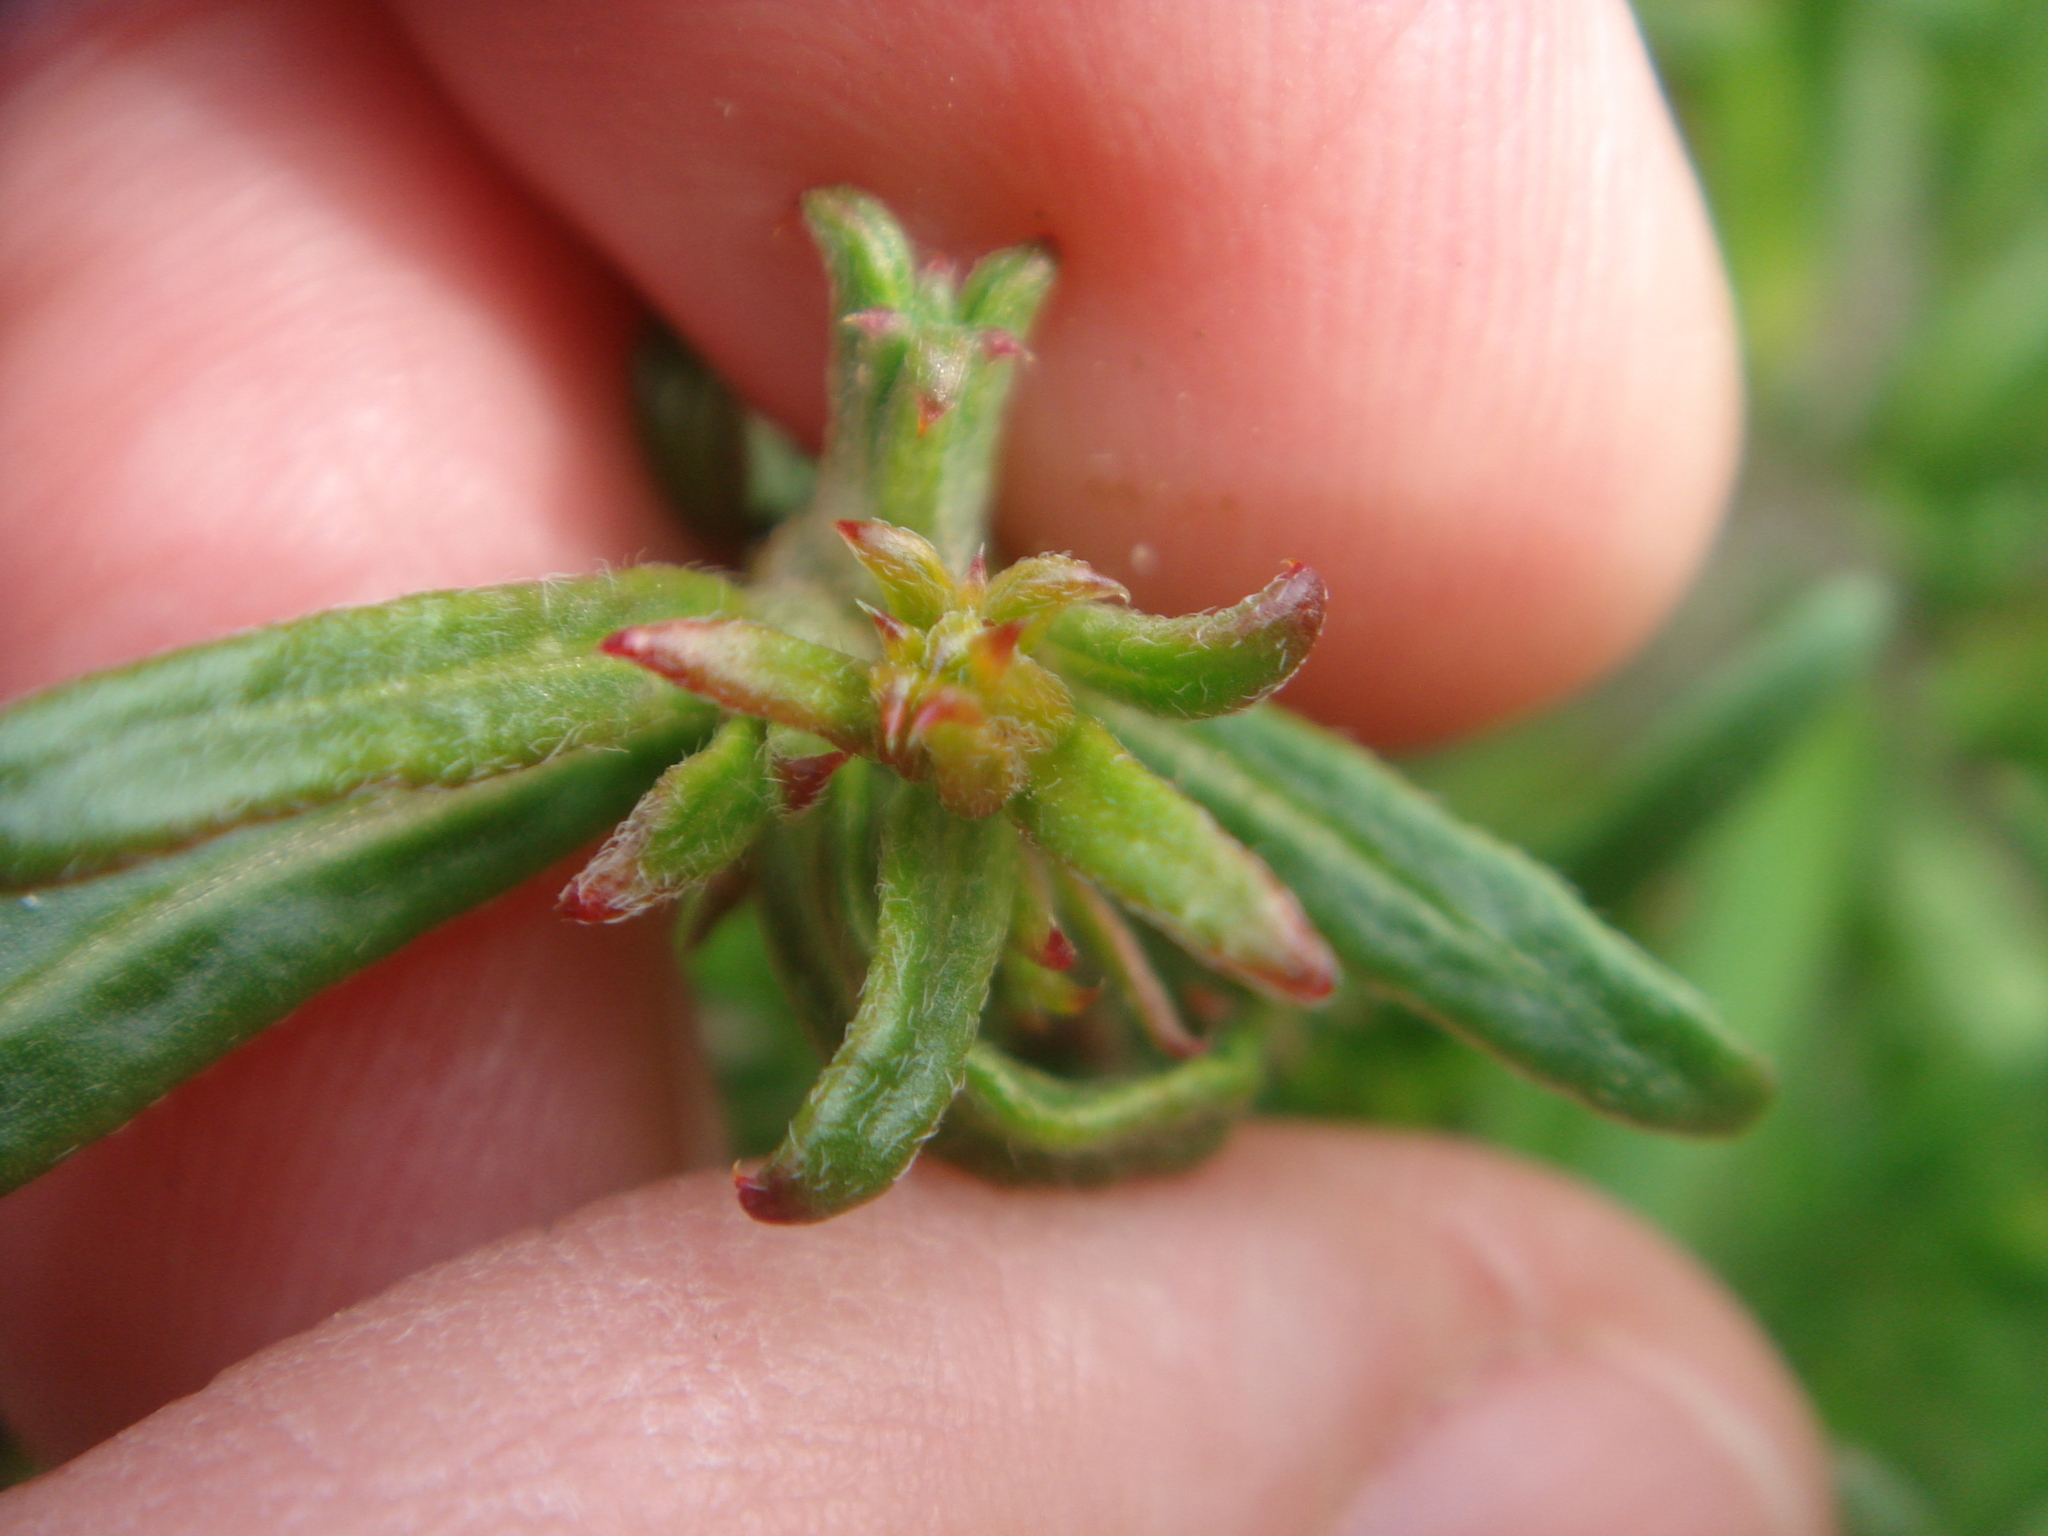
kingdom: Plantae
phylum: Tracheophyta
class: Magnoliopsida
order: Caryophyllales
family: Polygonaceae
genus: Chorizanthe
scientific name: Chorizanthe brevicornu
